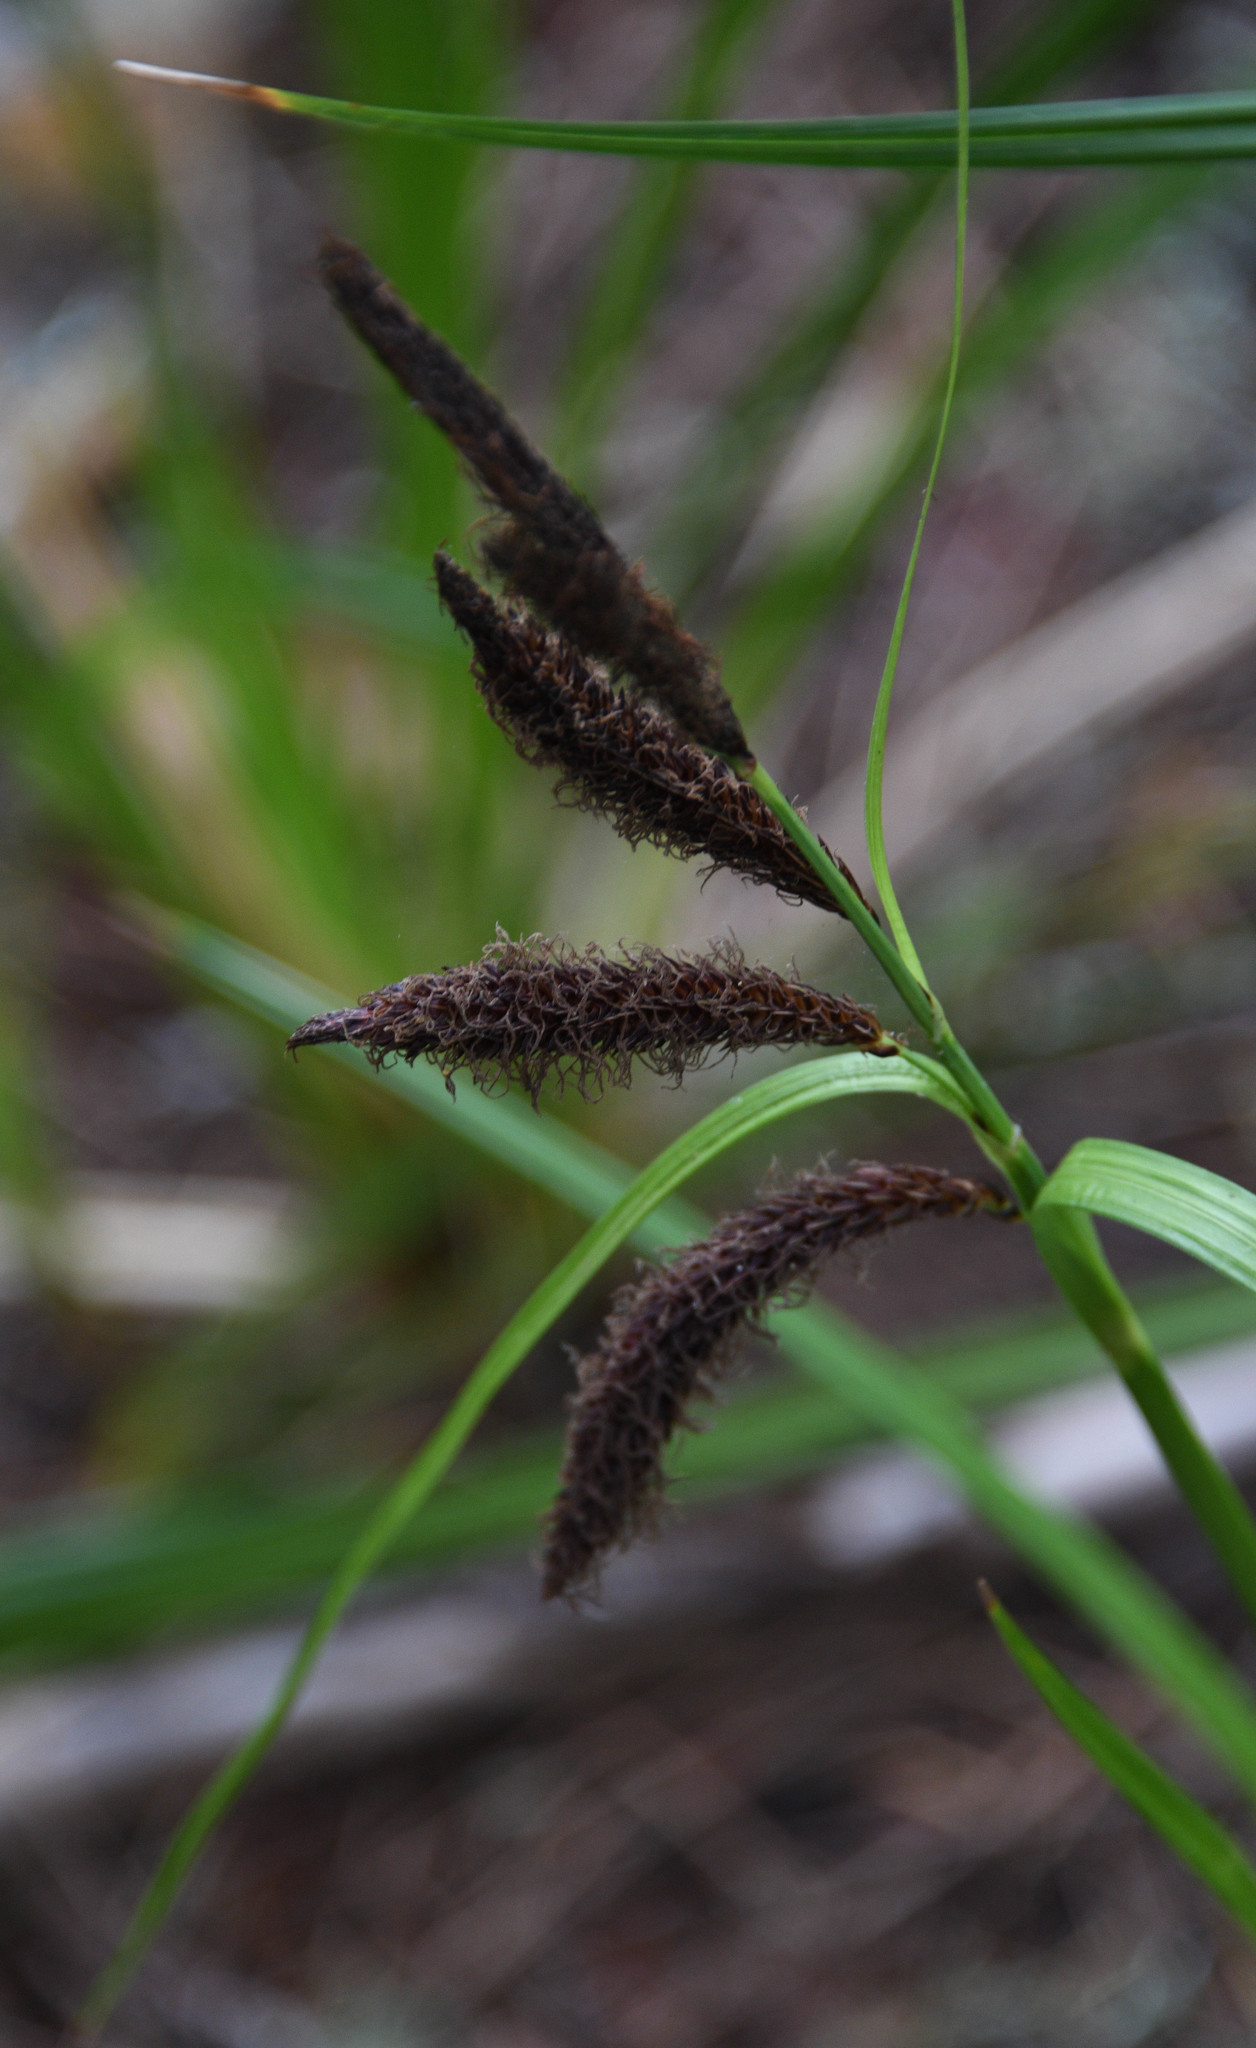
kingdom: Plantae
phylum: Tracheophyta
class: Liliopsida
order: Poales
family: Cyperaceae
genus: Carex
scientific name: Carex obnupta
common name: Slough sedge
